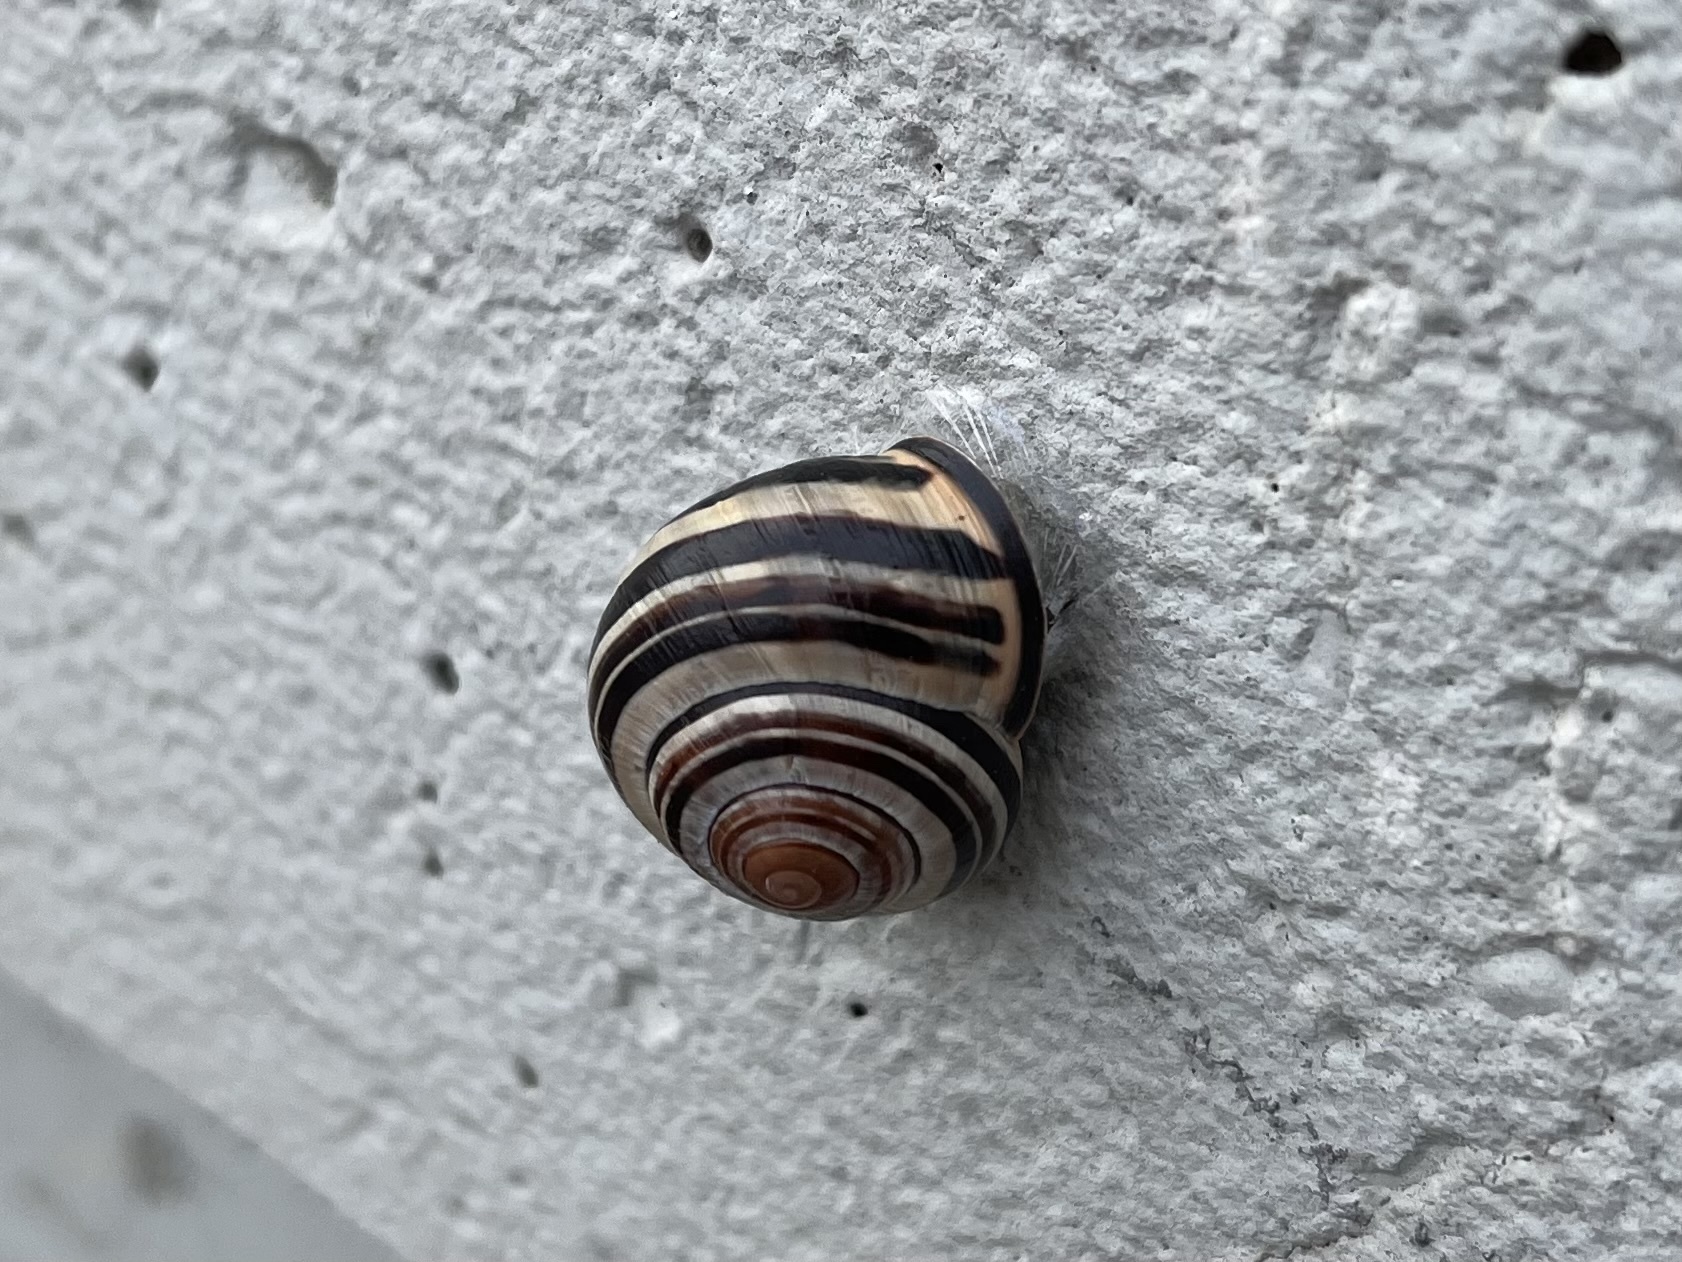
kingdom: Animalia
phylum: Mollusca
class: Gastropoda
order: Stylommatophora
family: Helicidae
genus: Cepaea
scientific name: Cepaea nemoralis
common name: Grovesnail
